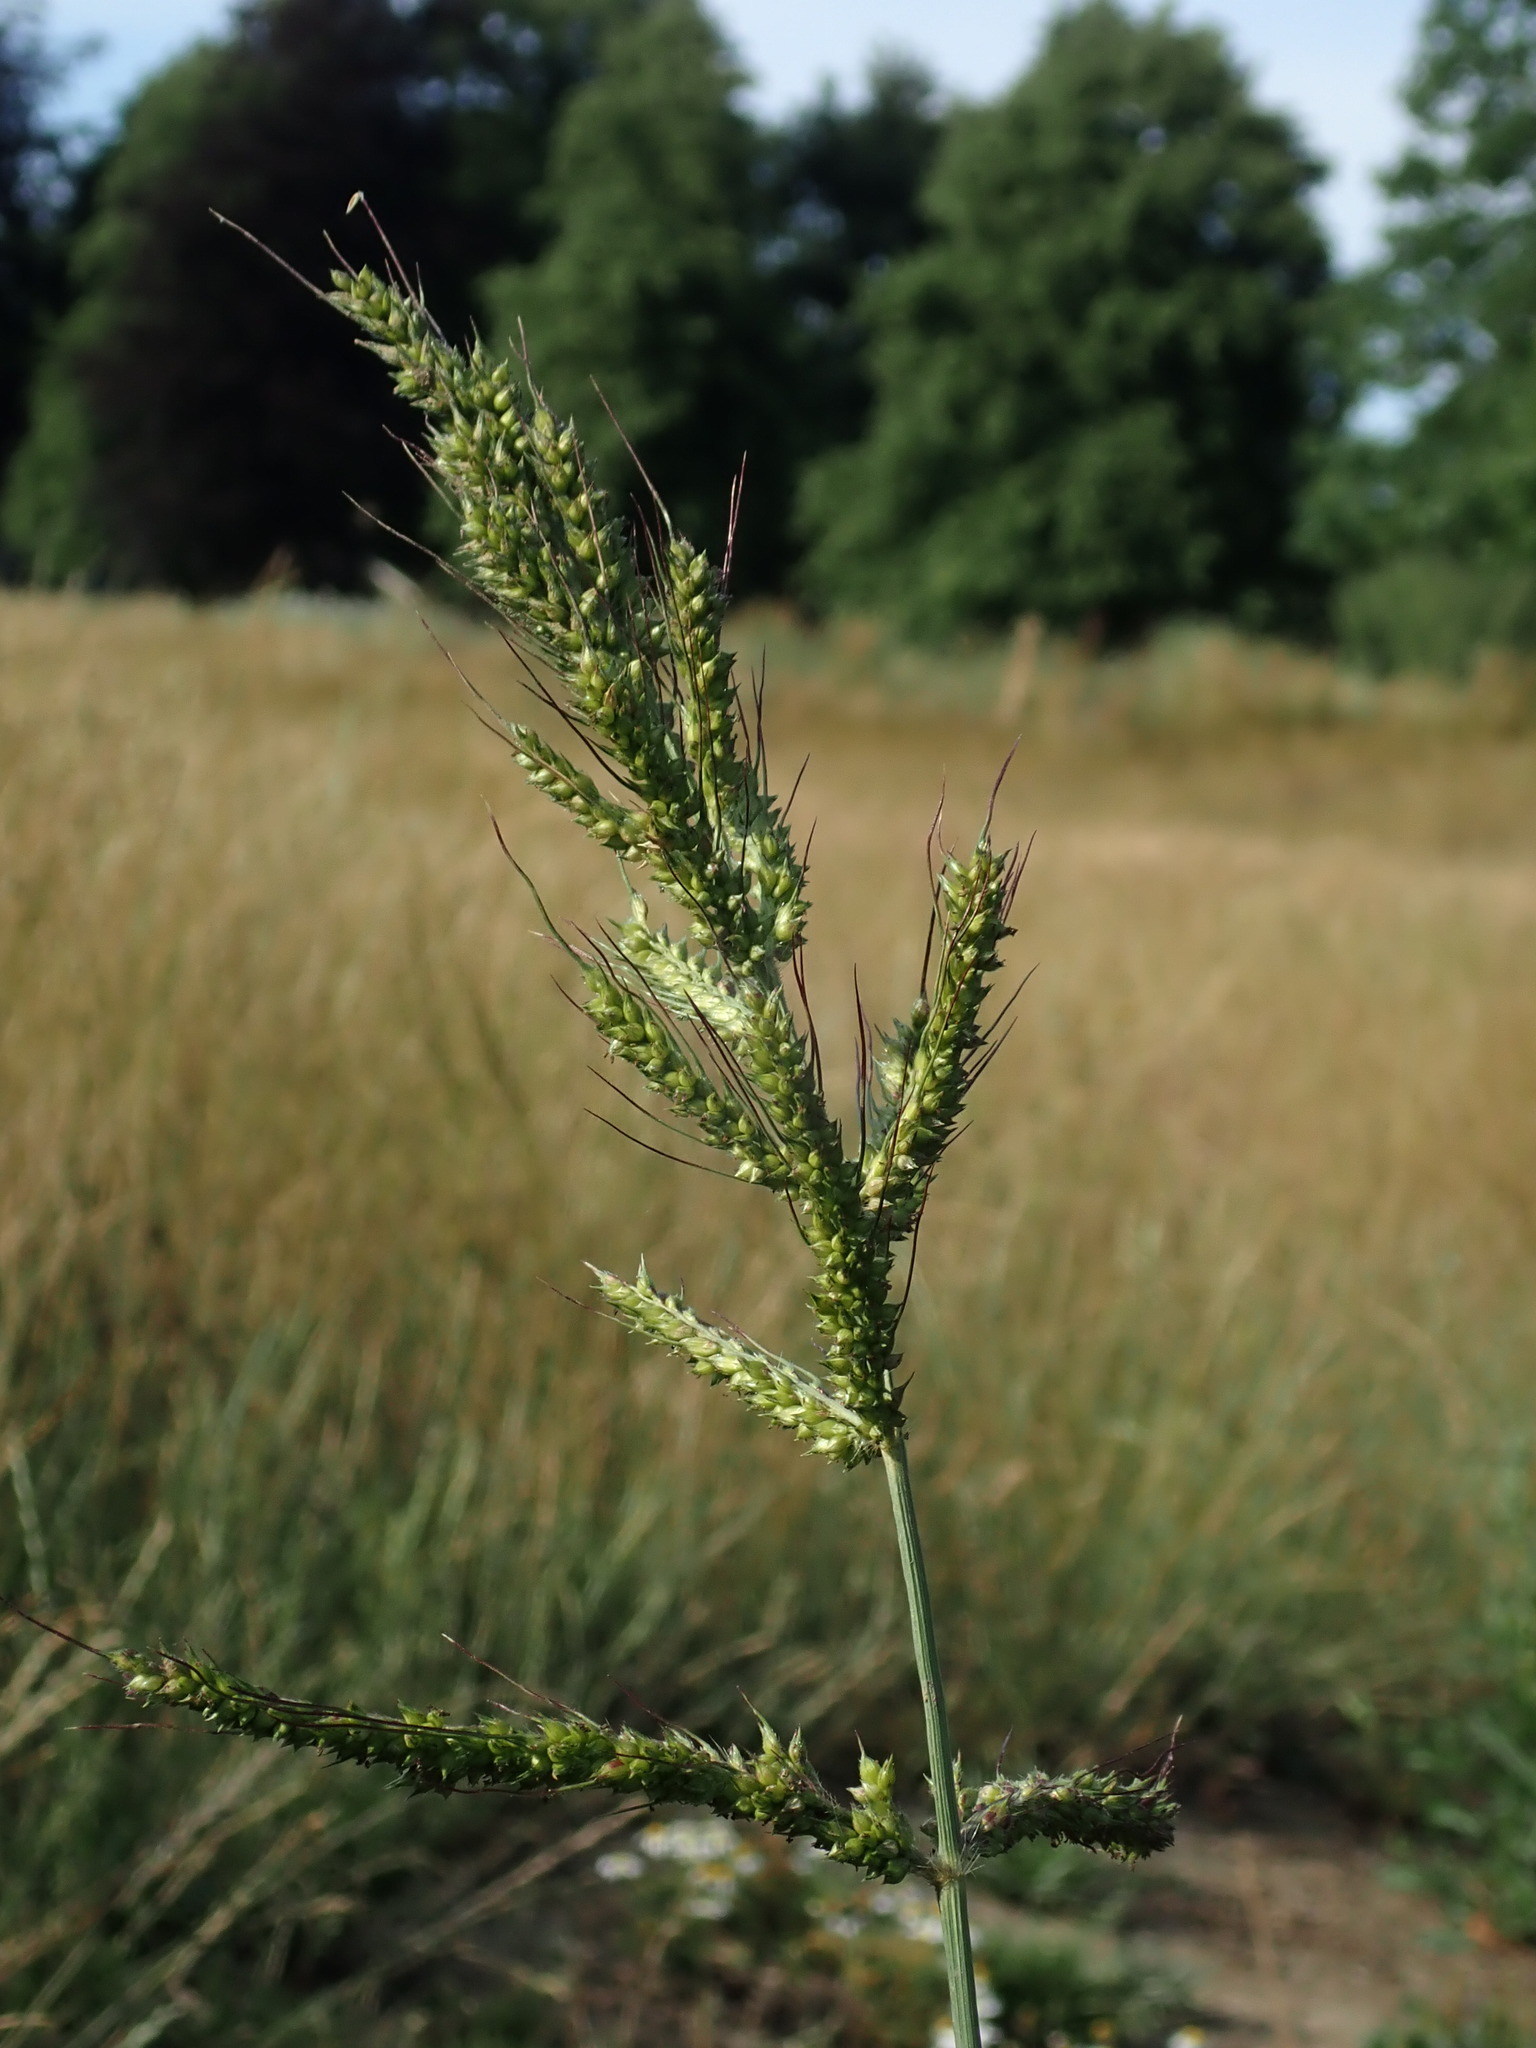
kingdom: Plantae
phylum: Tracheophyta
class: Liliopsida
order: Poales
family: Poaceae
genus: Echinochloa
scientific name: Echinochloa crus-galli
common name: Cockspur
